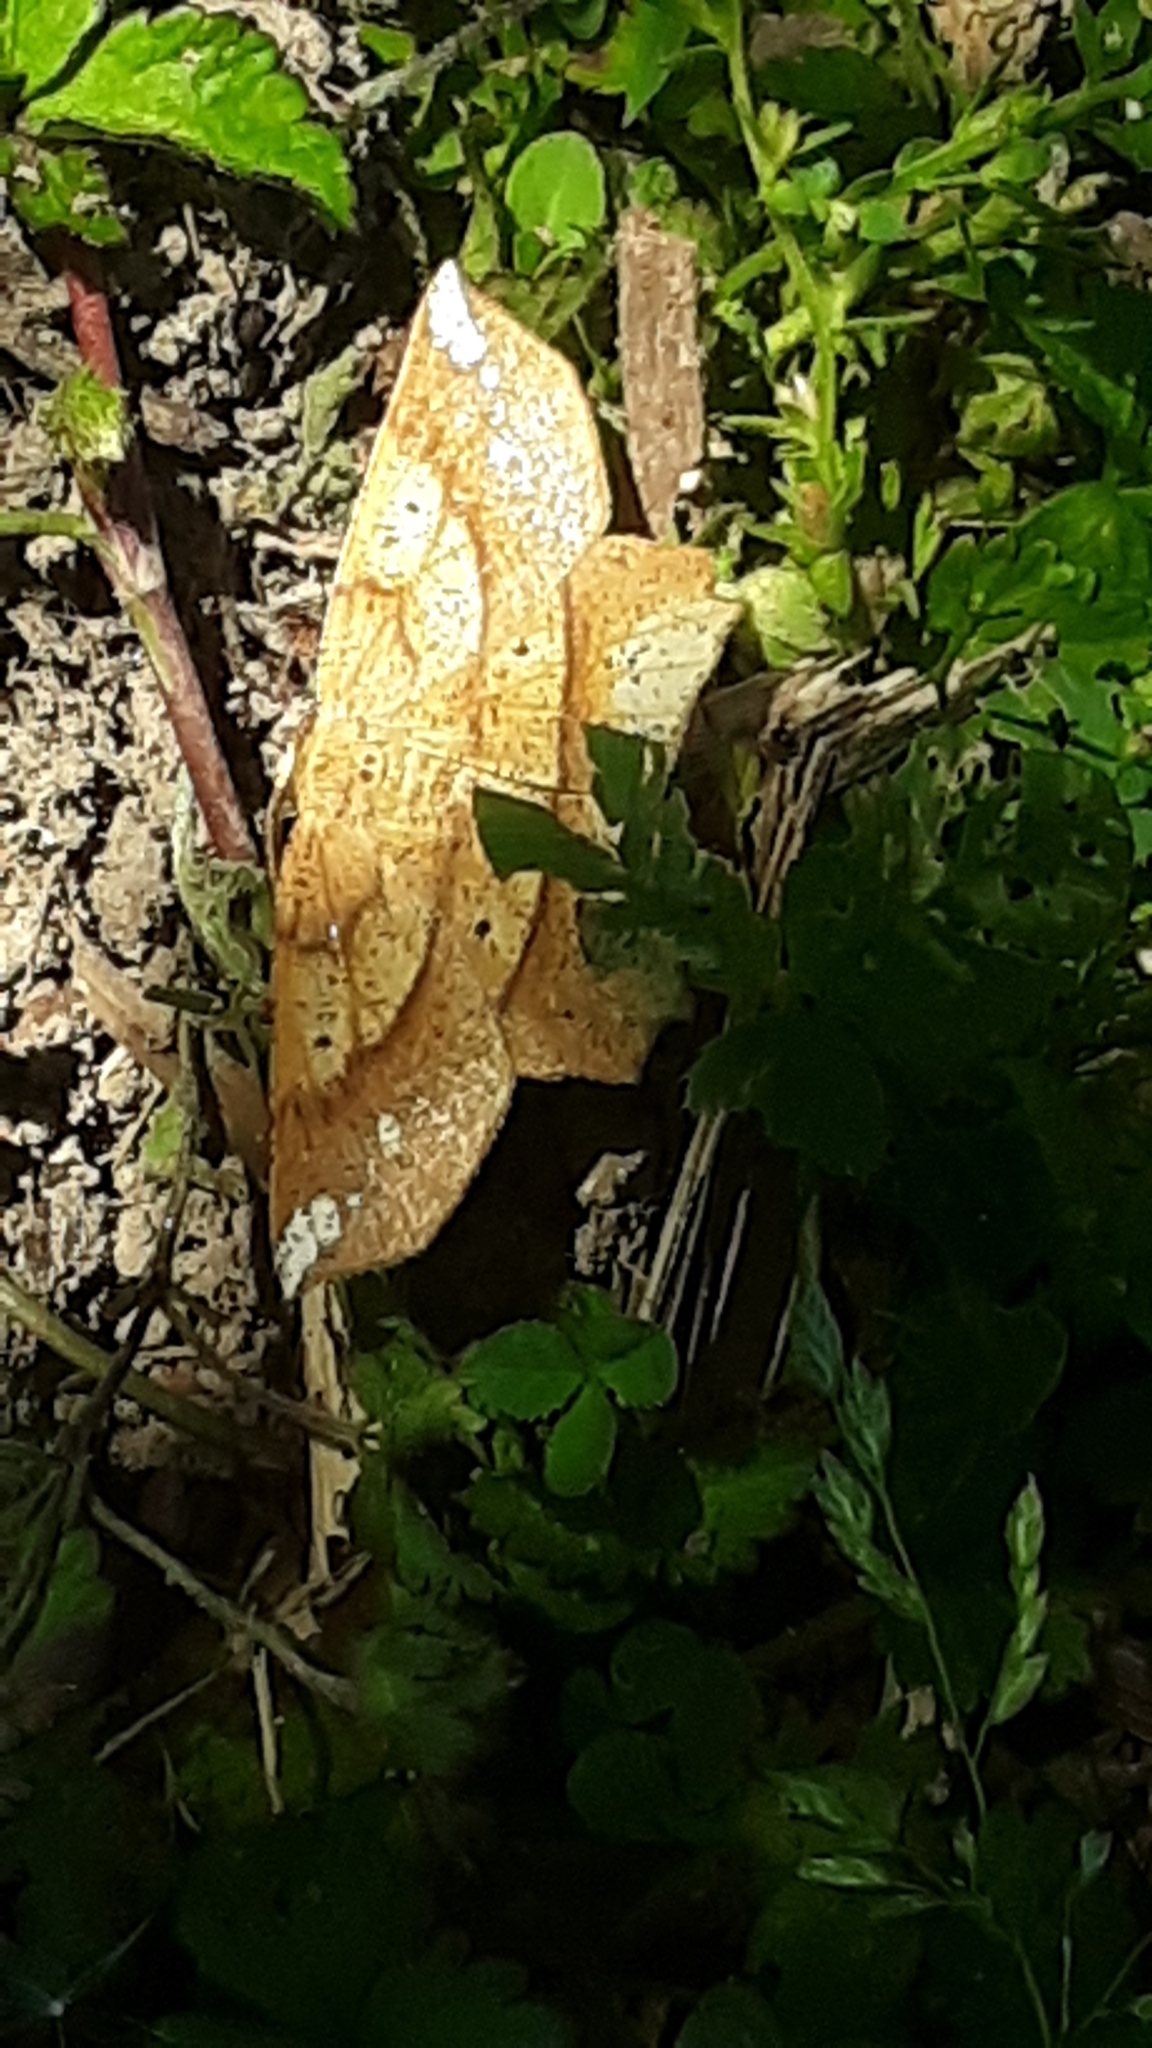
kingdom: Animalia
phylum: Arthropoda
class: Insecta
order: Lepidoptera
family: Geometridae
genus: Euchlaena
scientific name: Euchlaena amoenaria
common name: Deep yellow euchlaena
